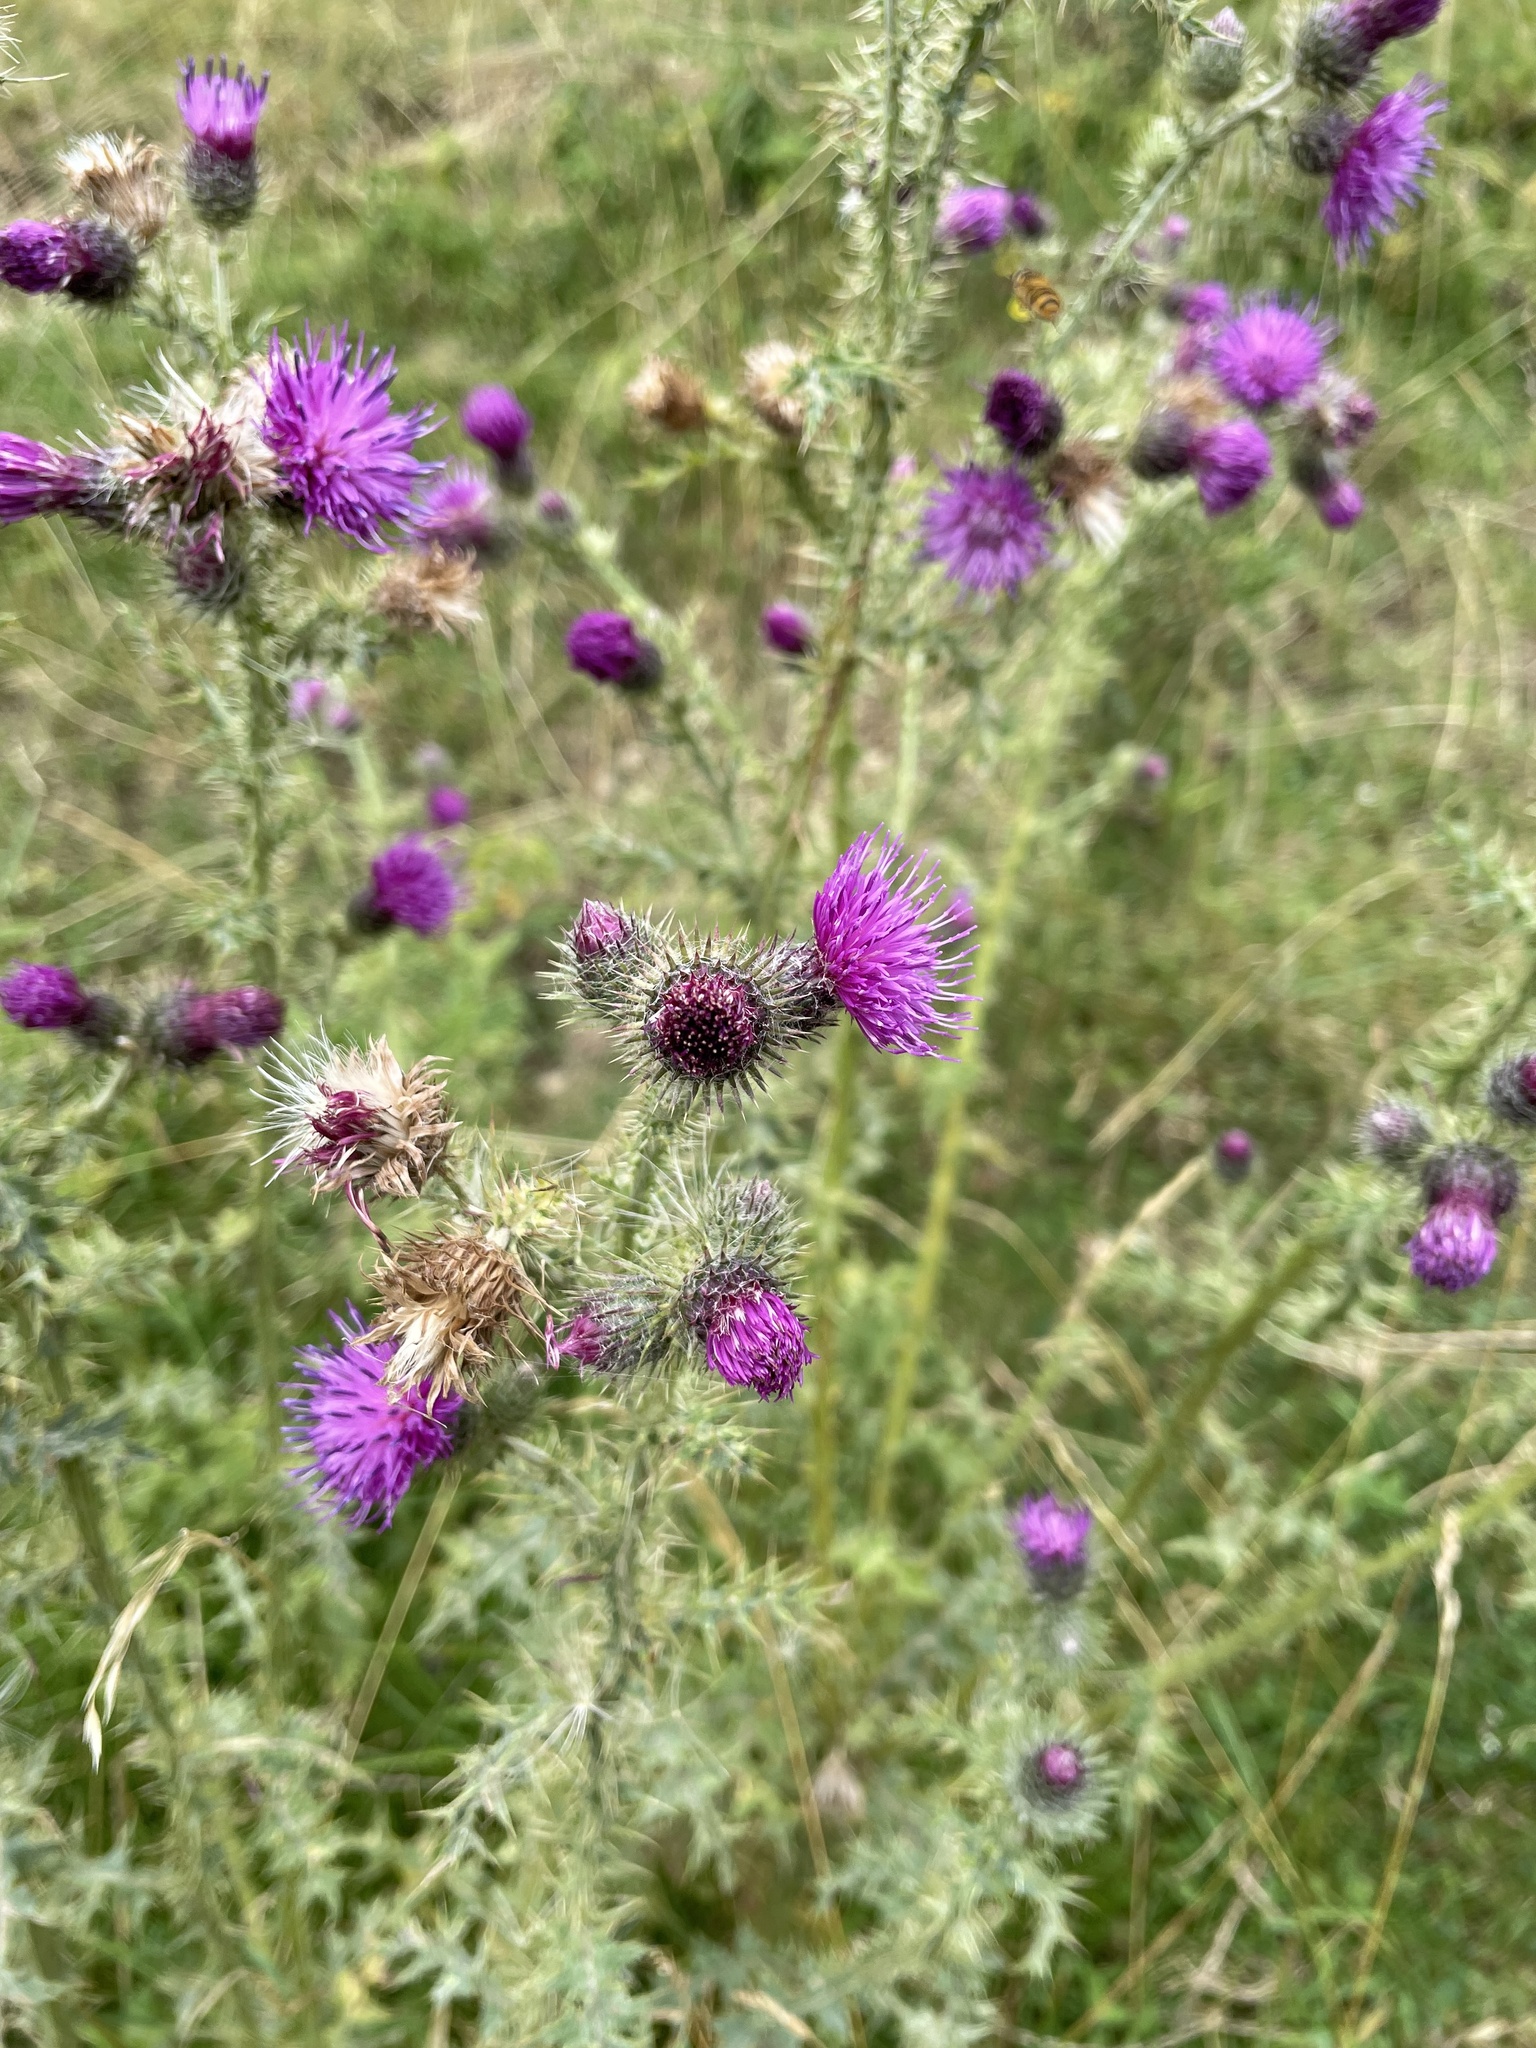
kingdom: Plantae
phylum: Tracheophyta
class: Magnoliopsida
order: Asterales
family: Asteraceae
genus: Carduus
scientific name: Carduus crispus
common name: Welted thistle
